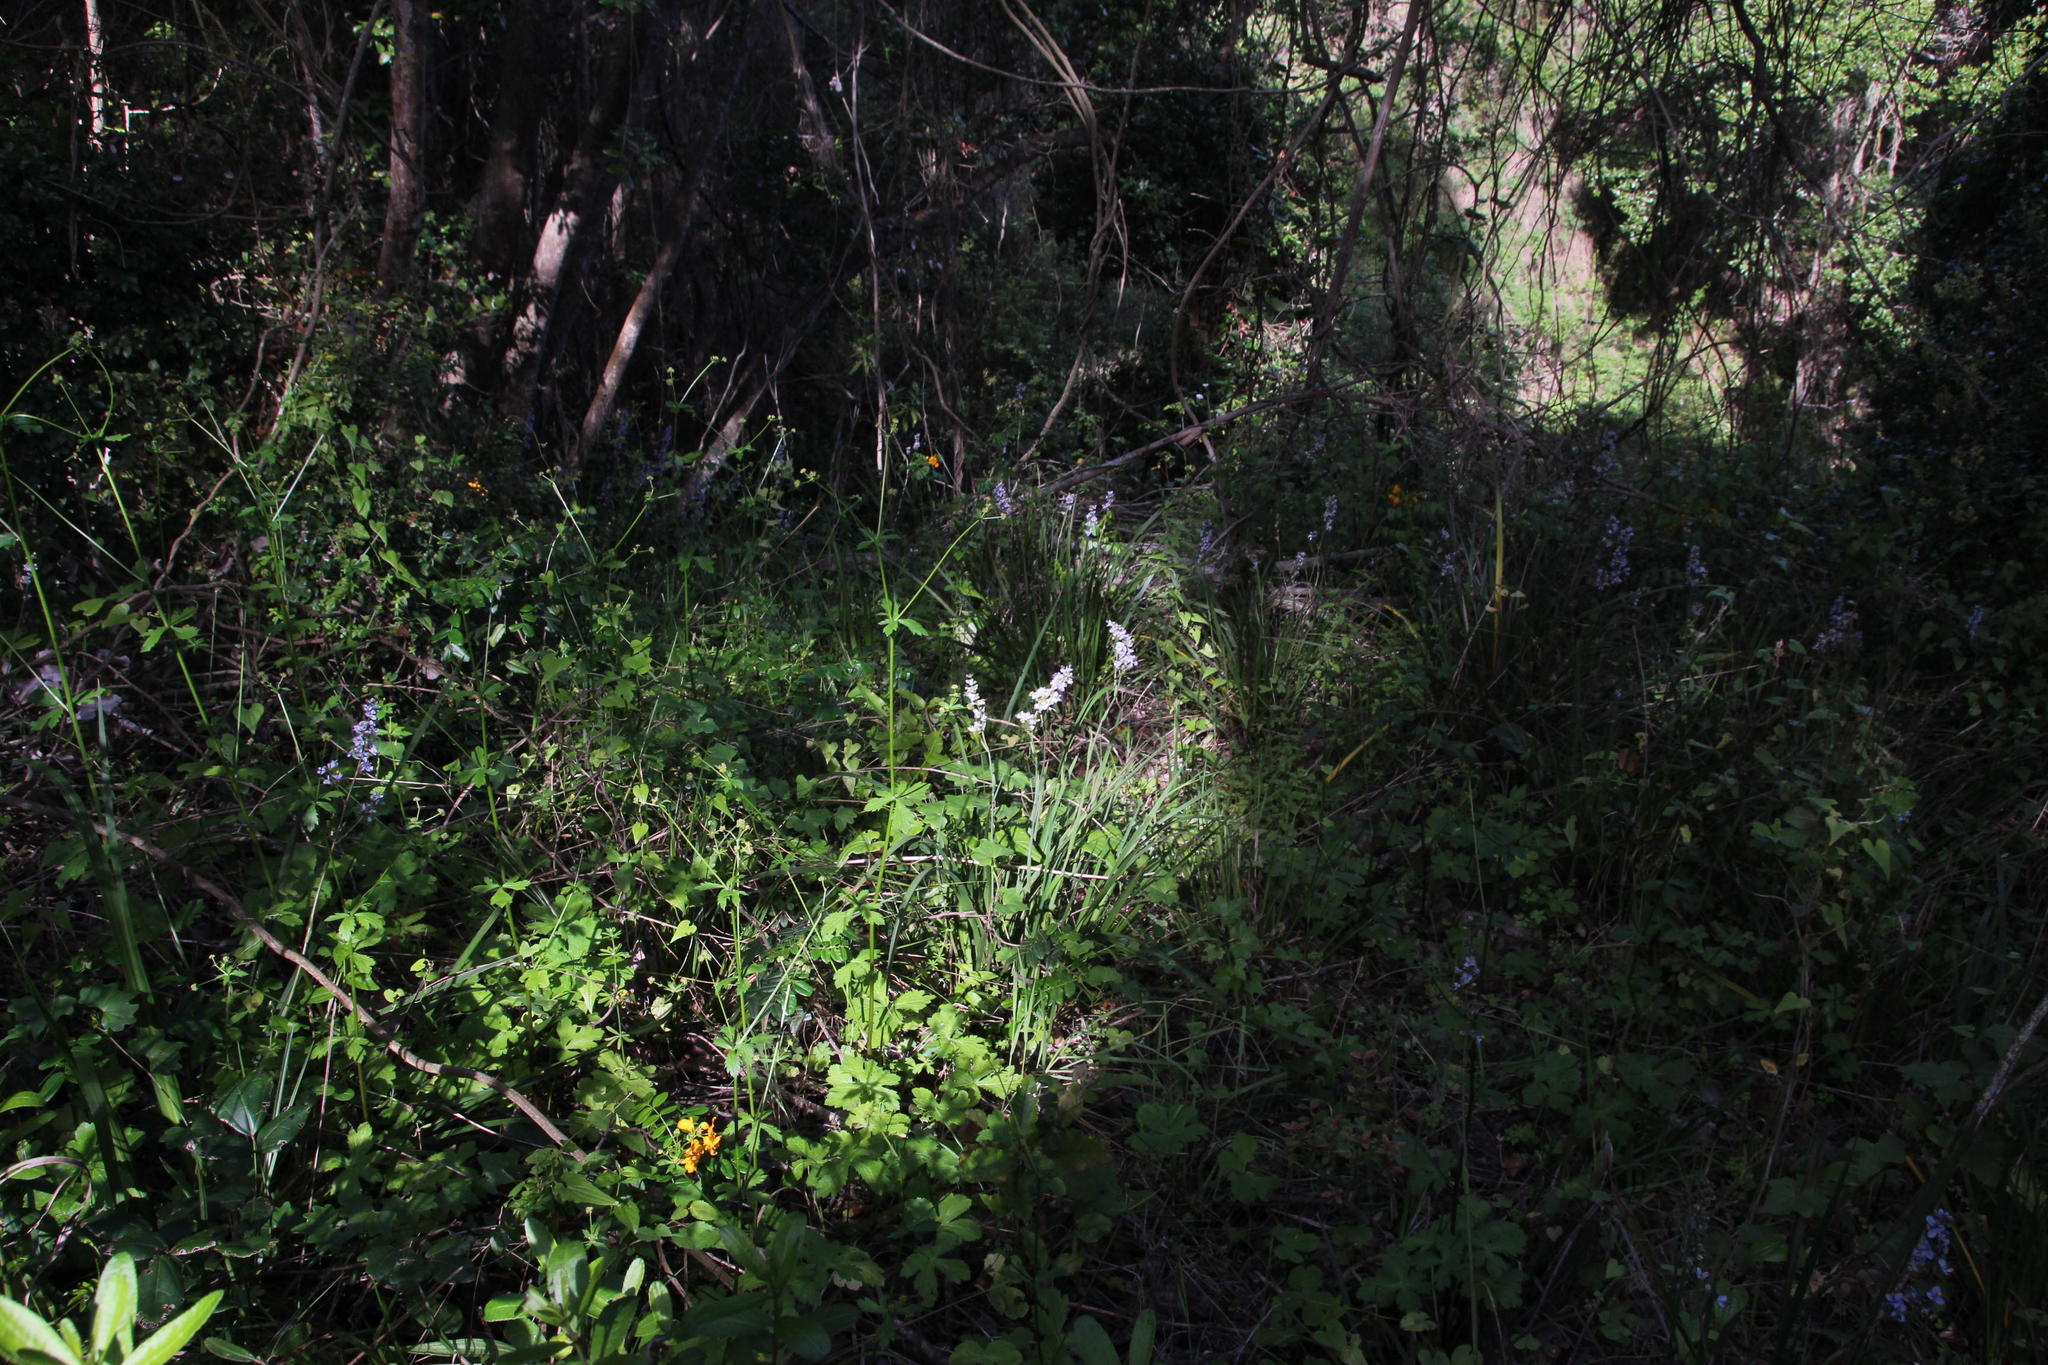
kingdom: Plantae
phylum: Tracheophyta
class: Liliopsida
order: Asparagales
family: Iridaceae
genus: Libertia
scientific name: Libertia sessiliflora
